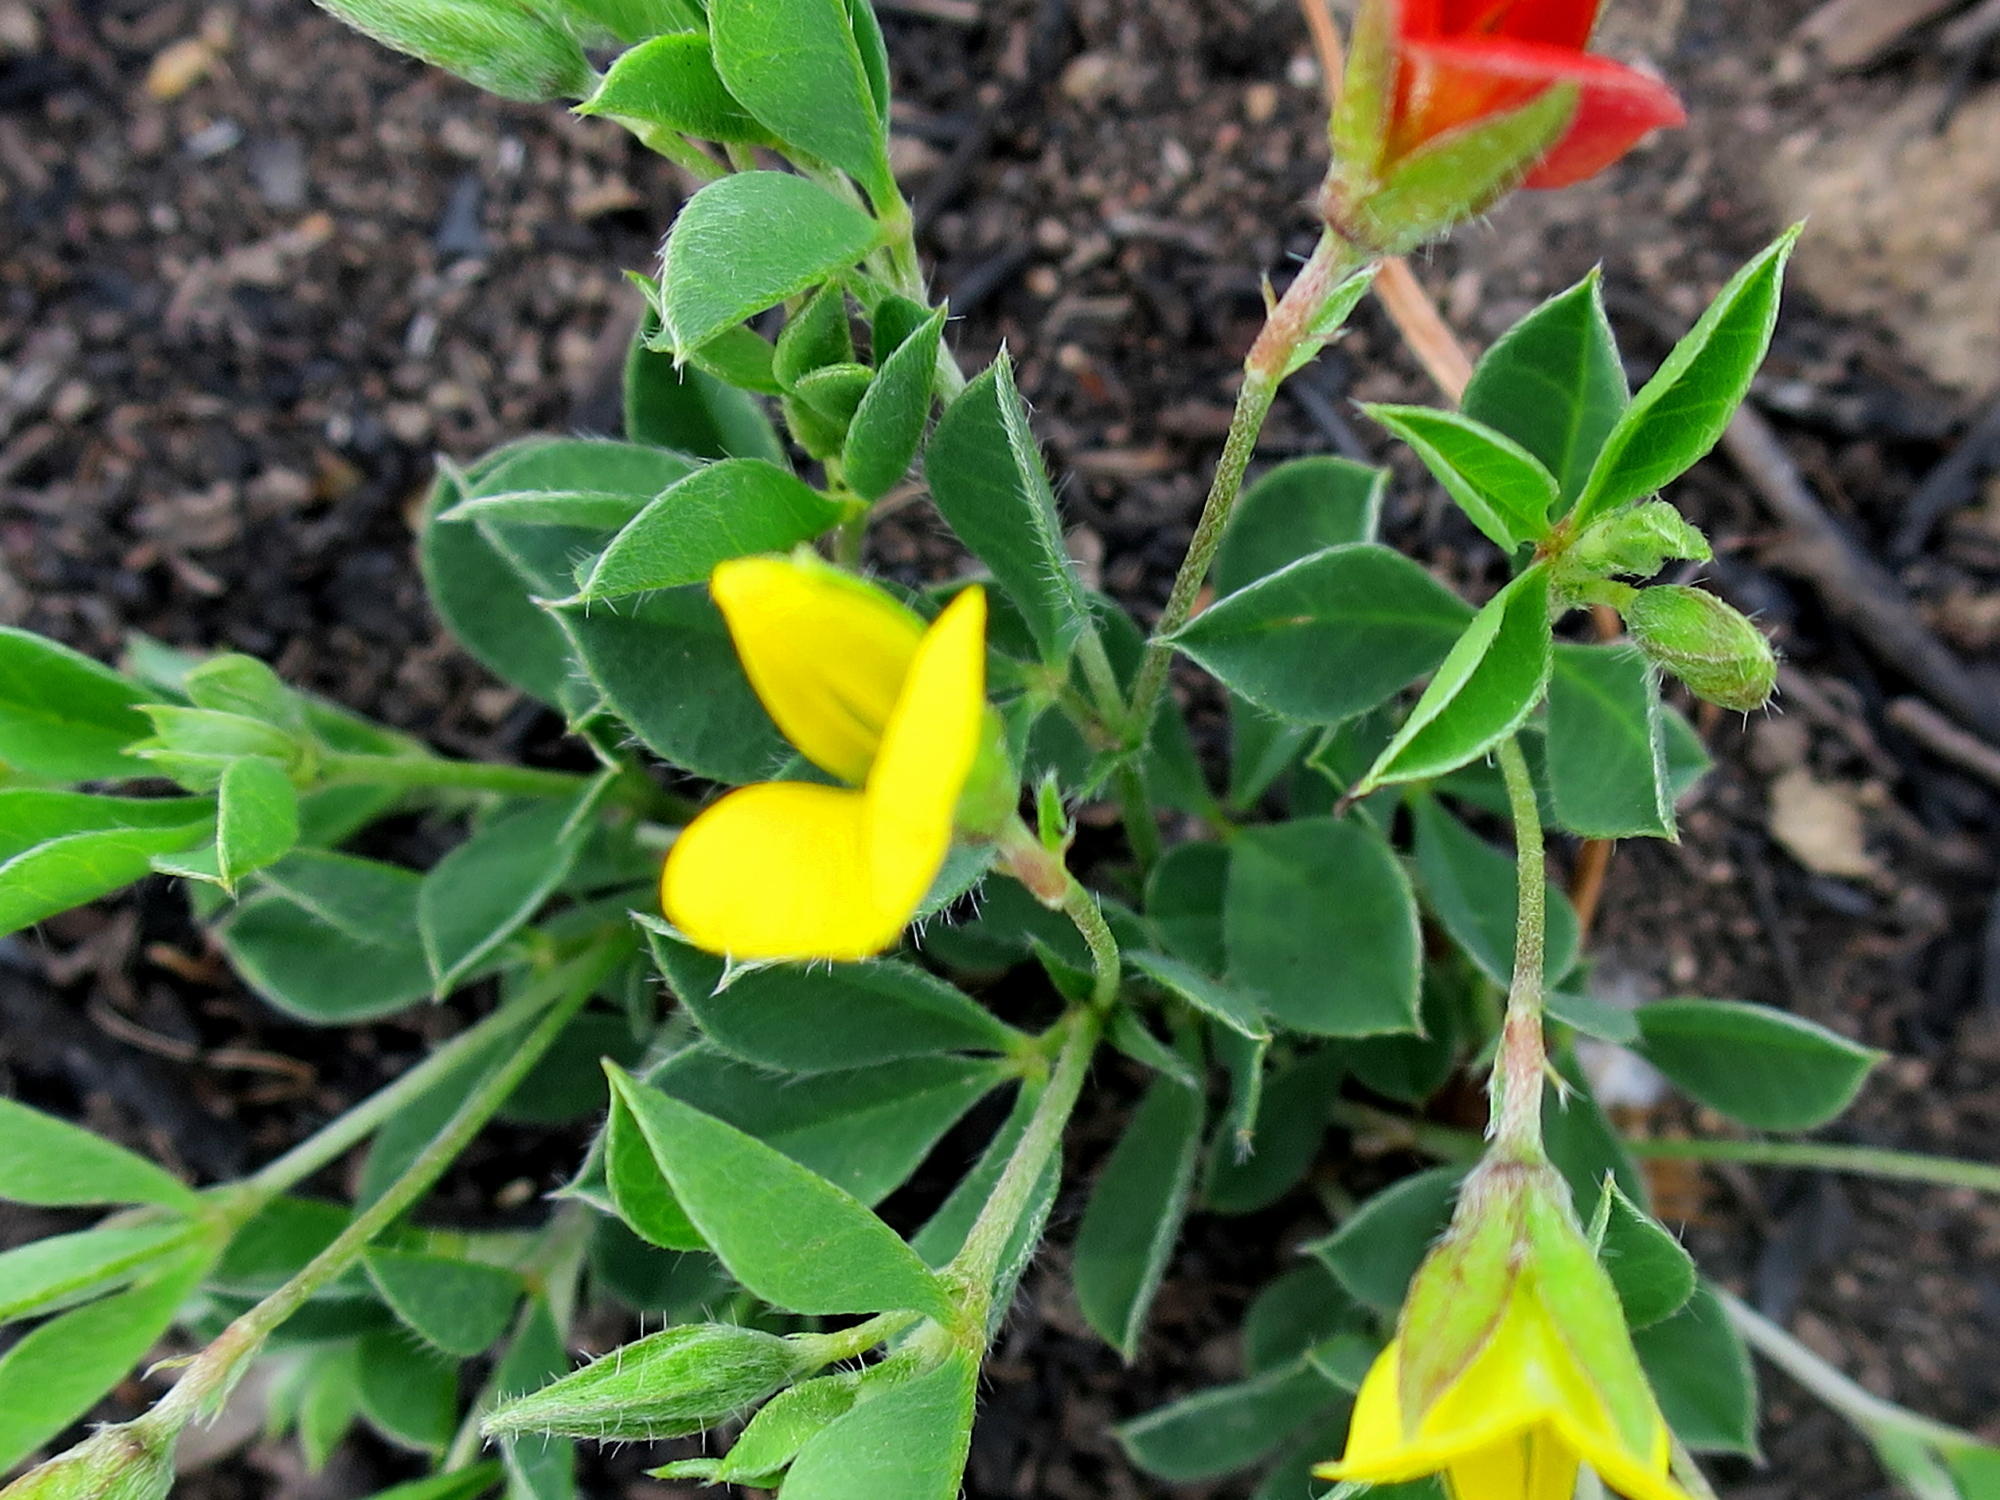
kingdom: Plantae
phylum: Tracheophyta
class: Magnoliopsida
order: Fabales
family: Fabaceae
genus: Argyrolobium
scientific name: Argyrolobium molle
